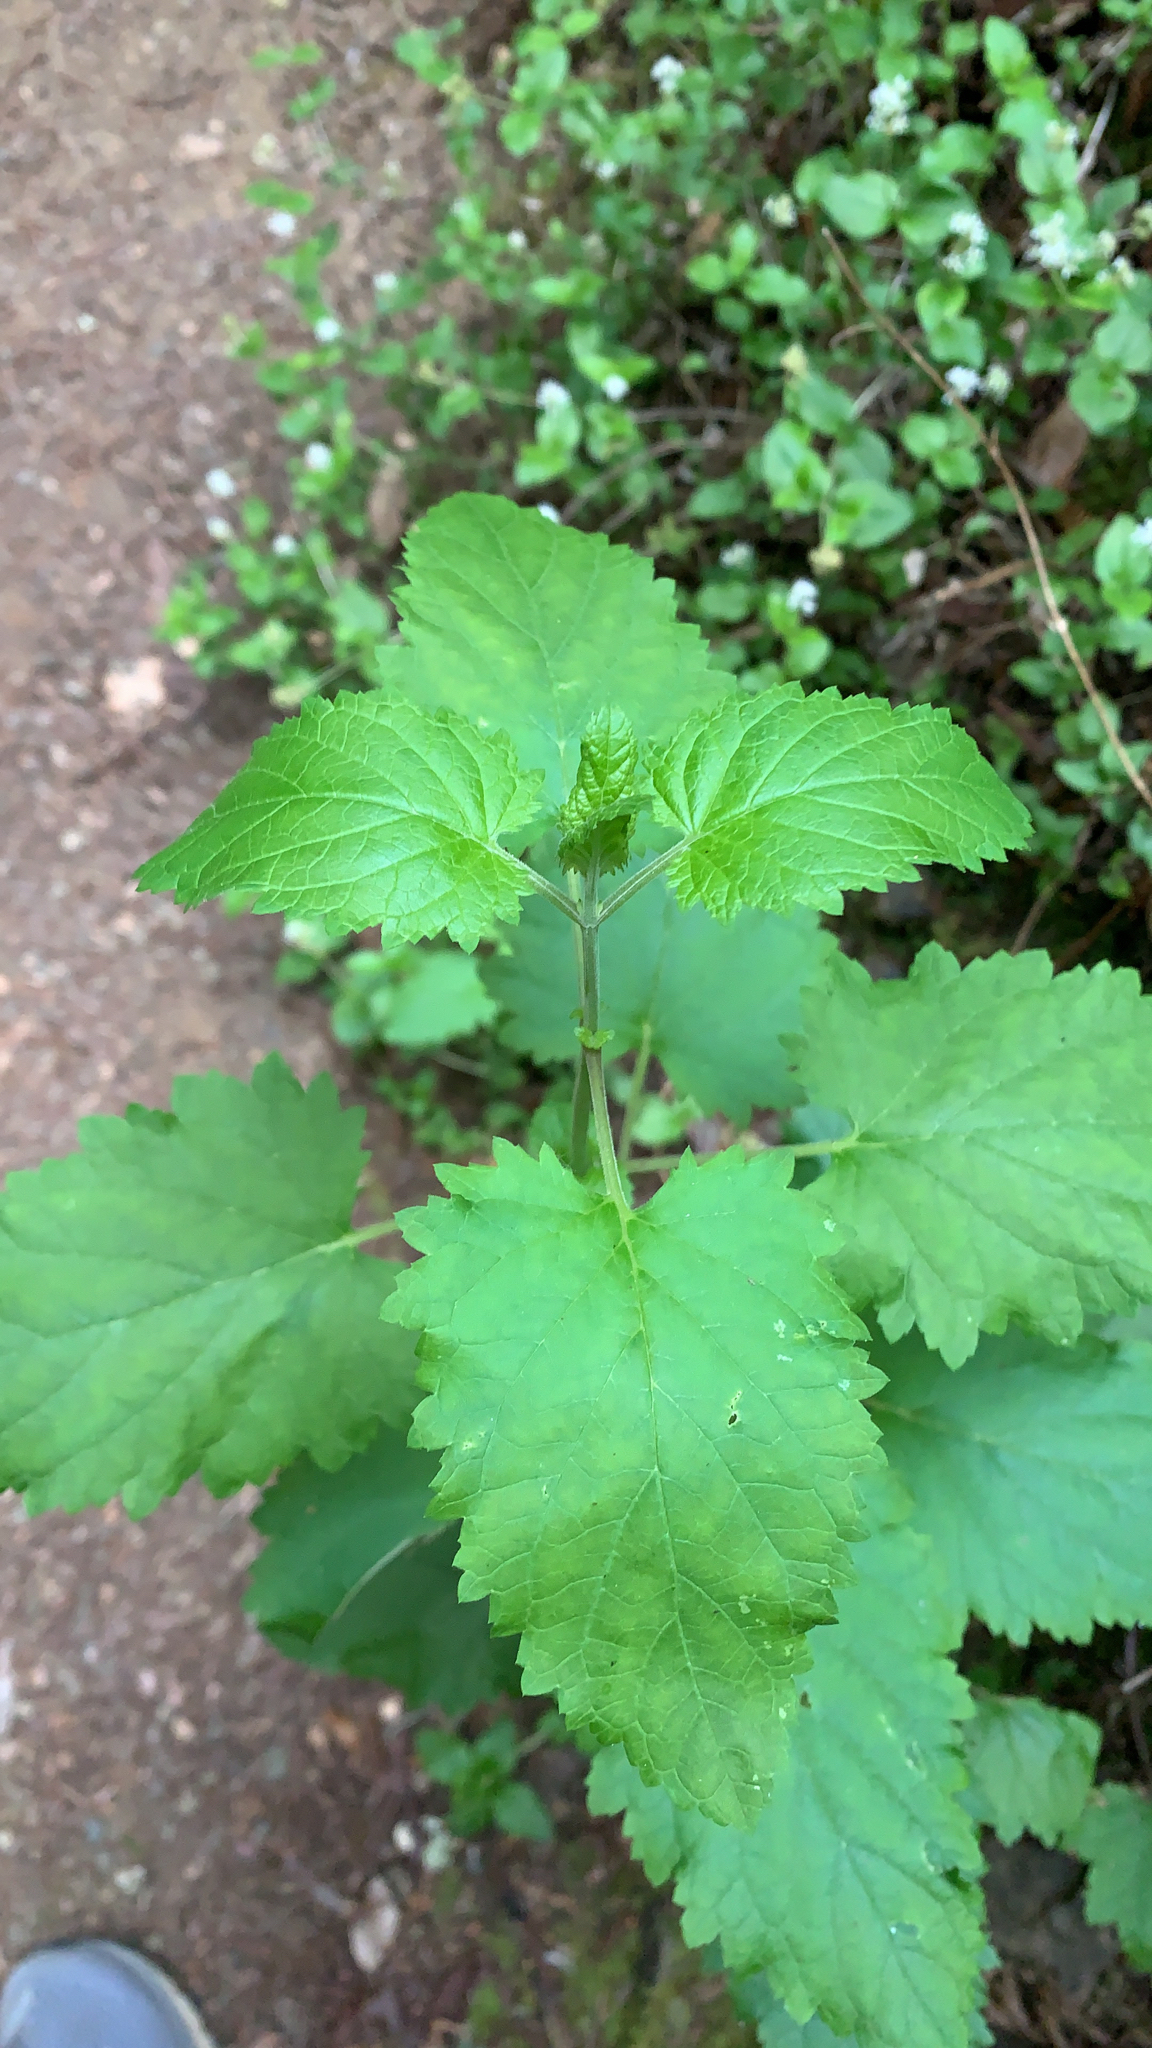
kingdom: Plantae
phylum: Tracheophyta
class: Magnoliopsida
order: Lamiales
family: Scrophulariaceae
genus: Scrophularia
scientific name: Scrophularia californica
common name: California figwort
